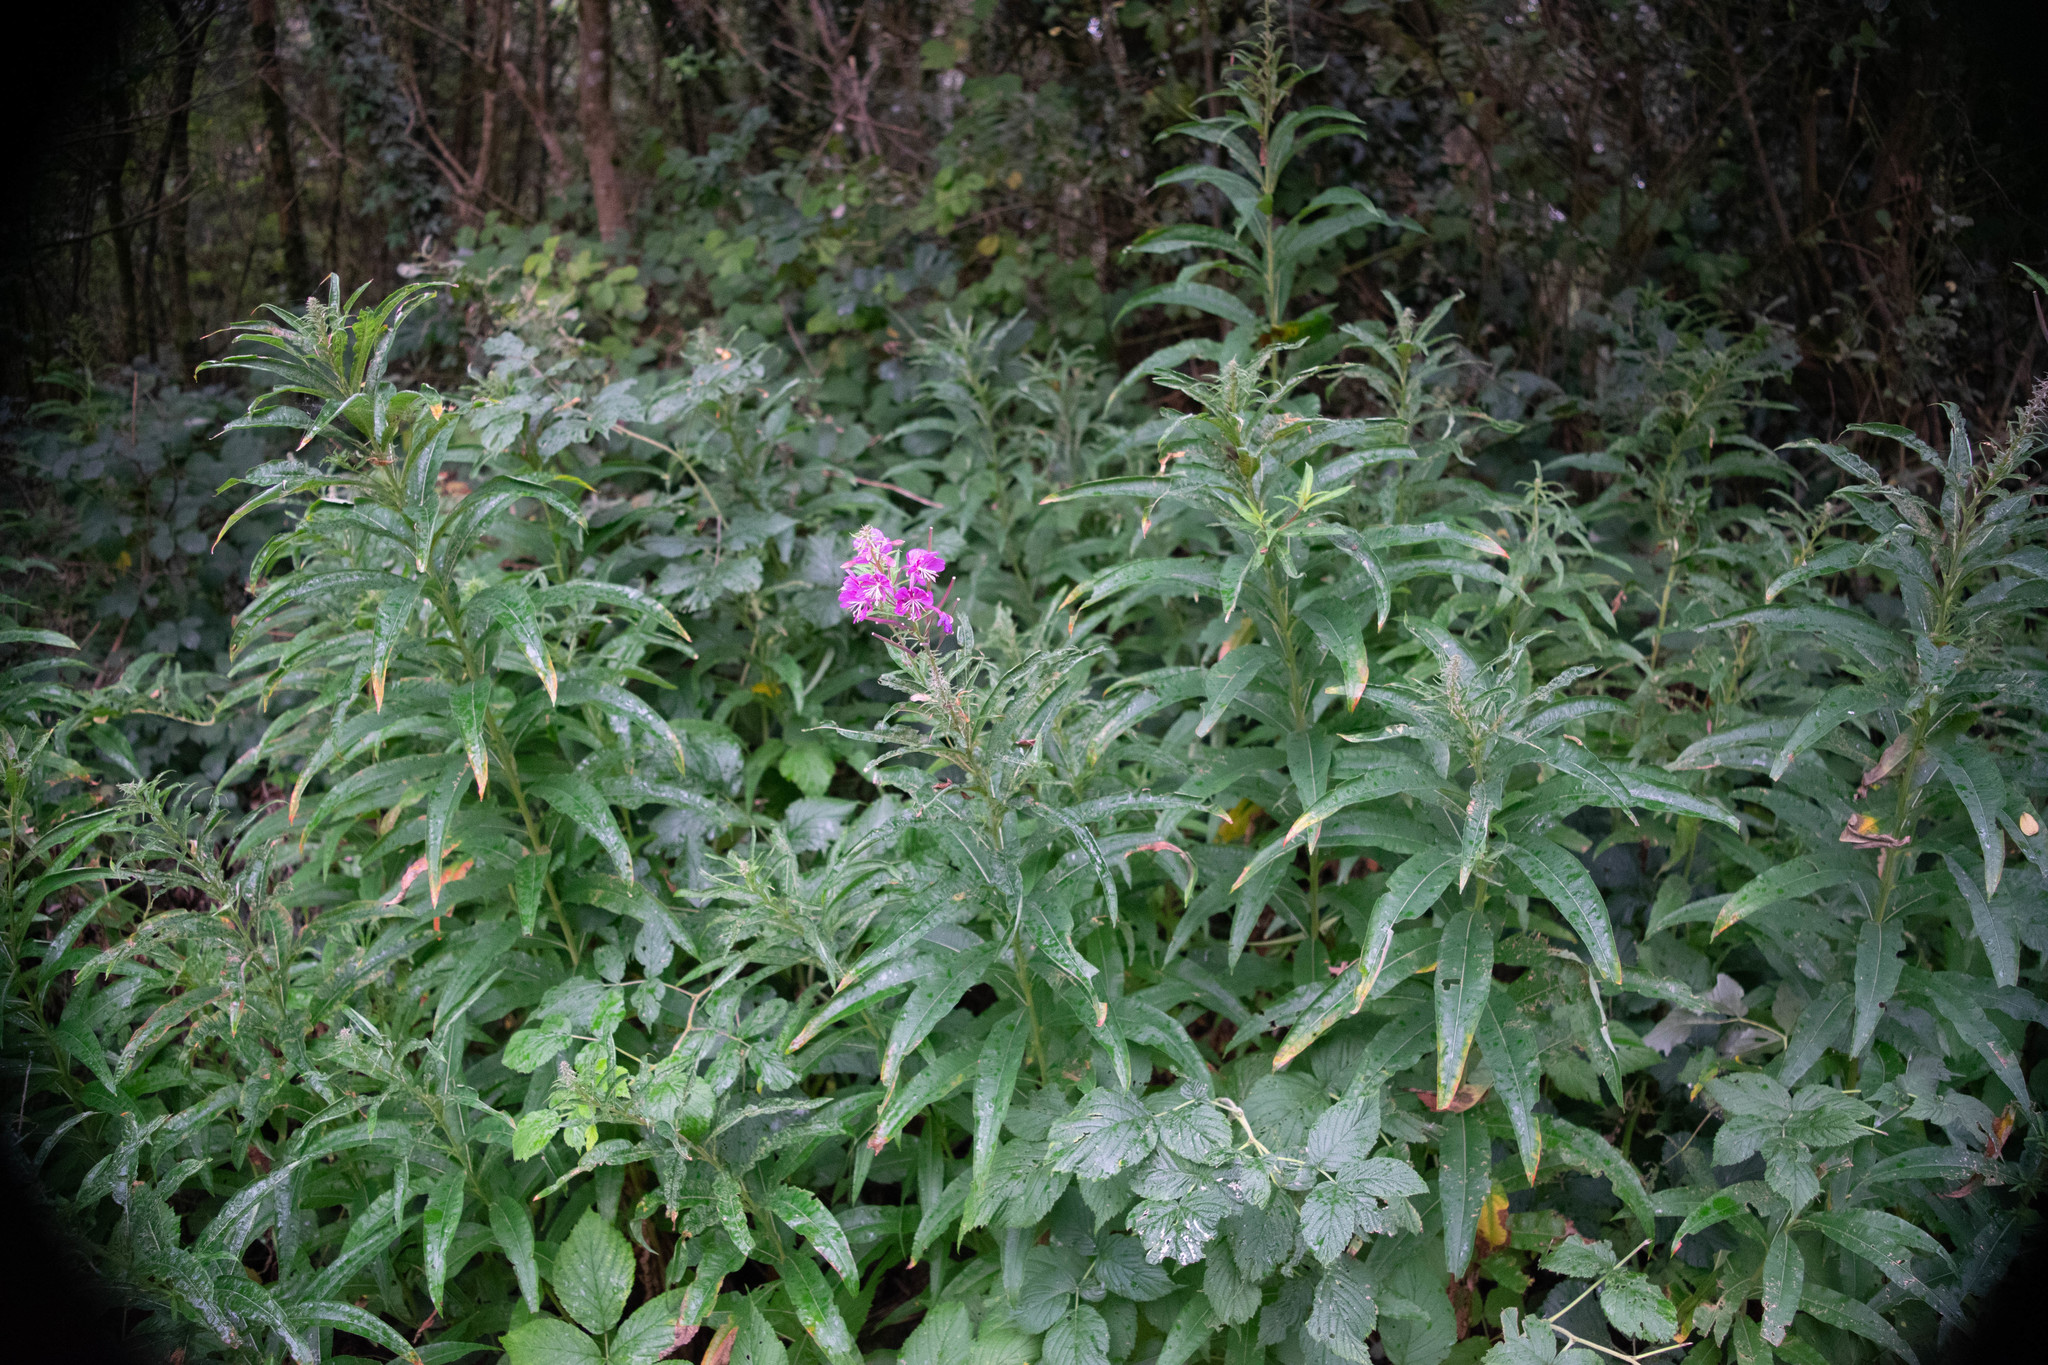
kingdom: Plantae
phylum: Tracheophyta
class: Magnoliopsida
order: Myrtales
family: Onagraceae
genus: Chamaenerion
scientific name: Chamaenerion angustifolium
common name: Fireweed
